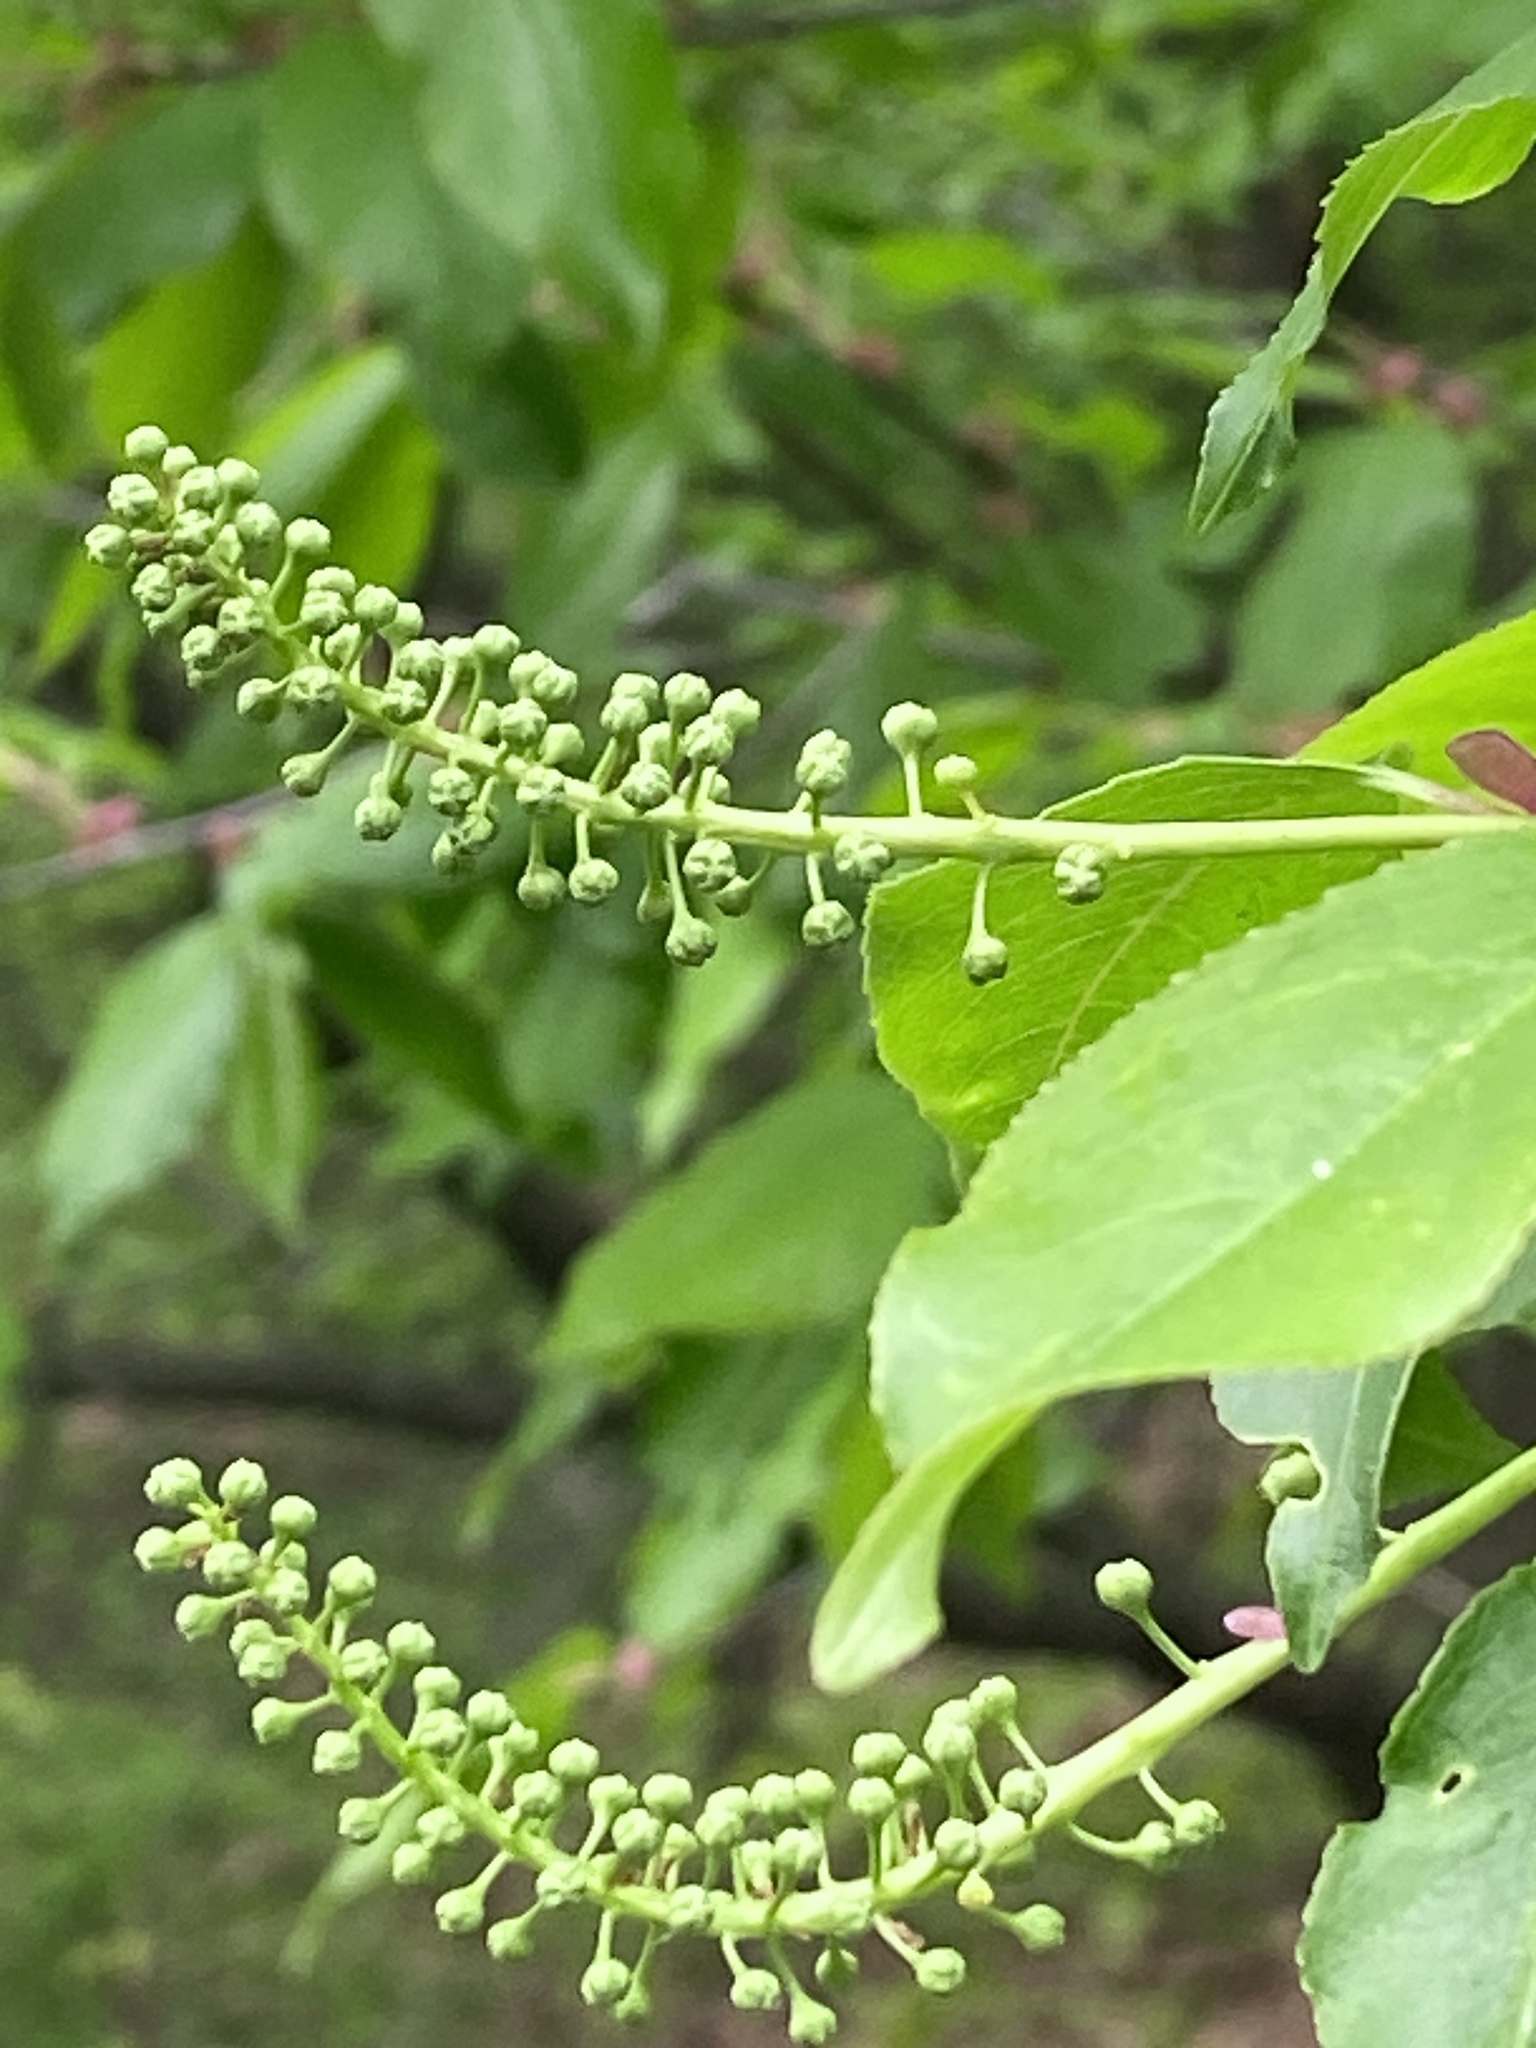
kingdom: Plantae
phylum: Tracheophyta
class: Magnoliopsida
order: Rosales
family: Rosaceae
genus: Prunus
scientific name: Prunus serotina
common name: Black cherry
